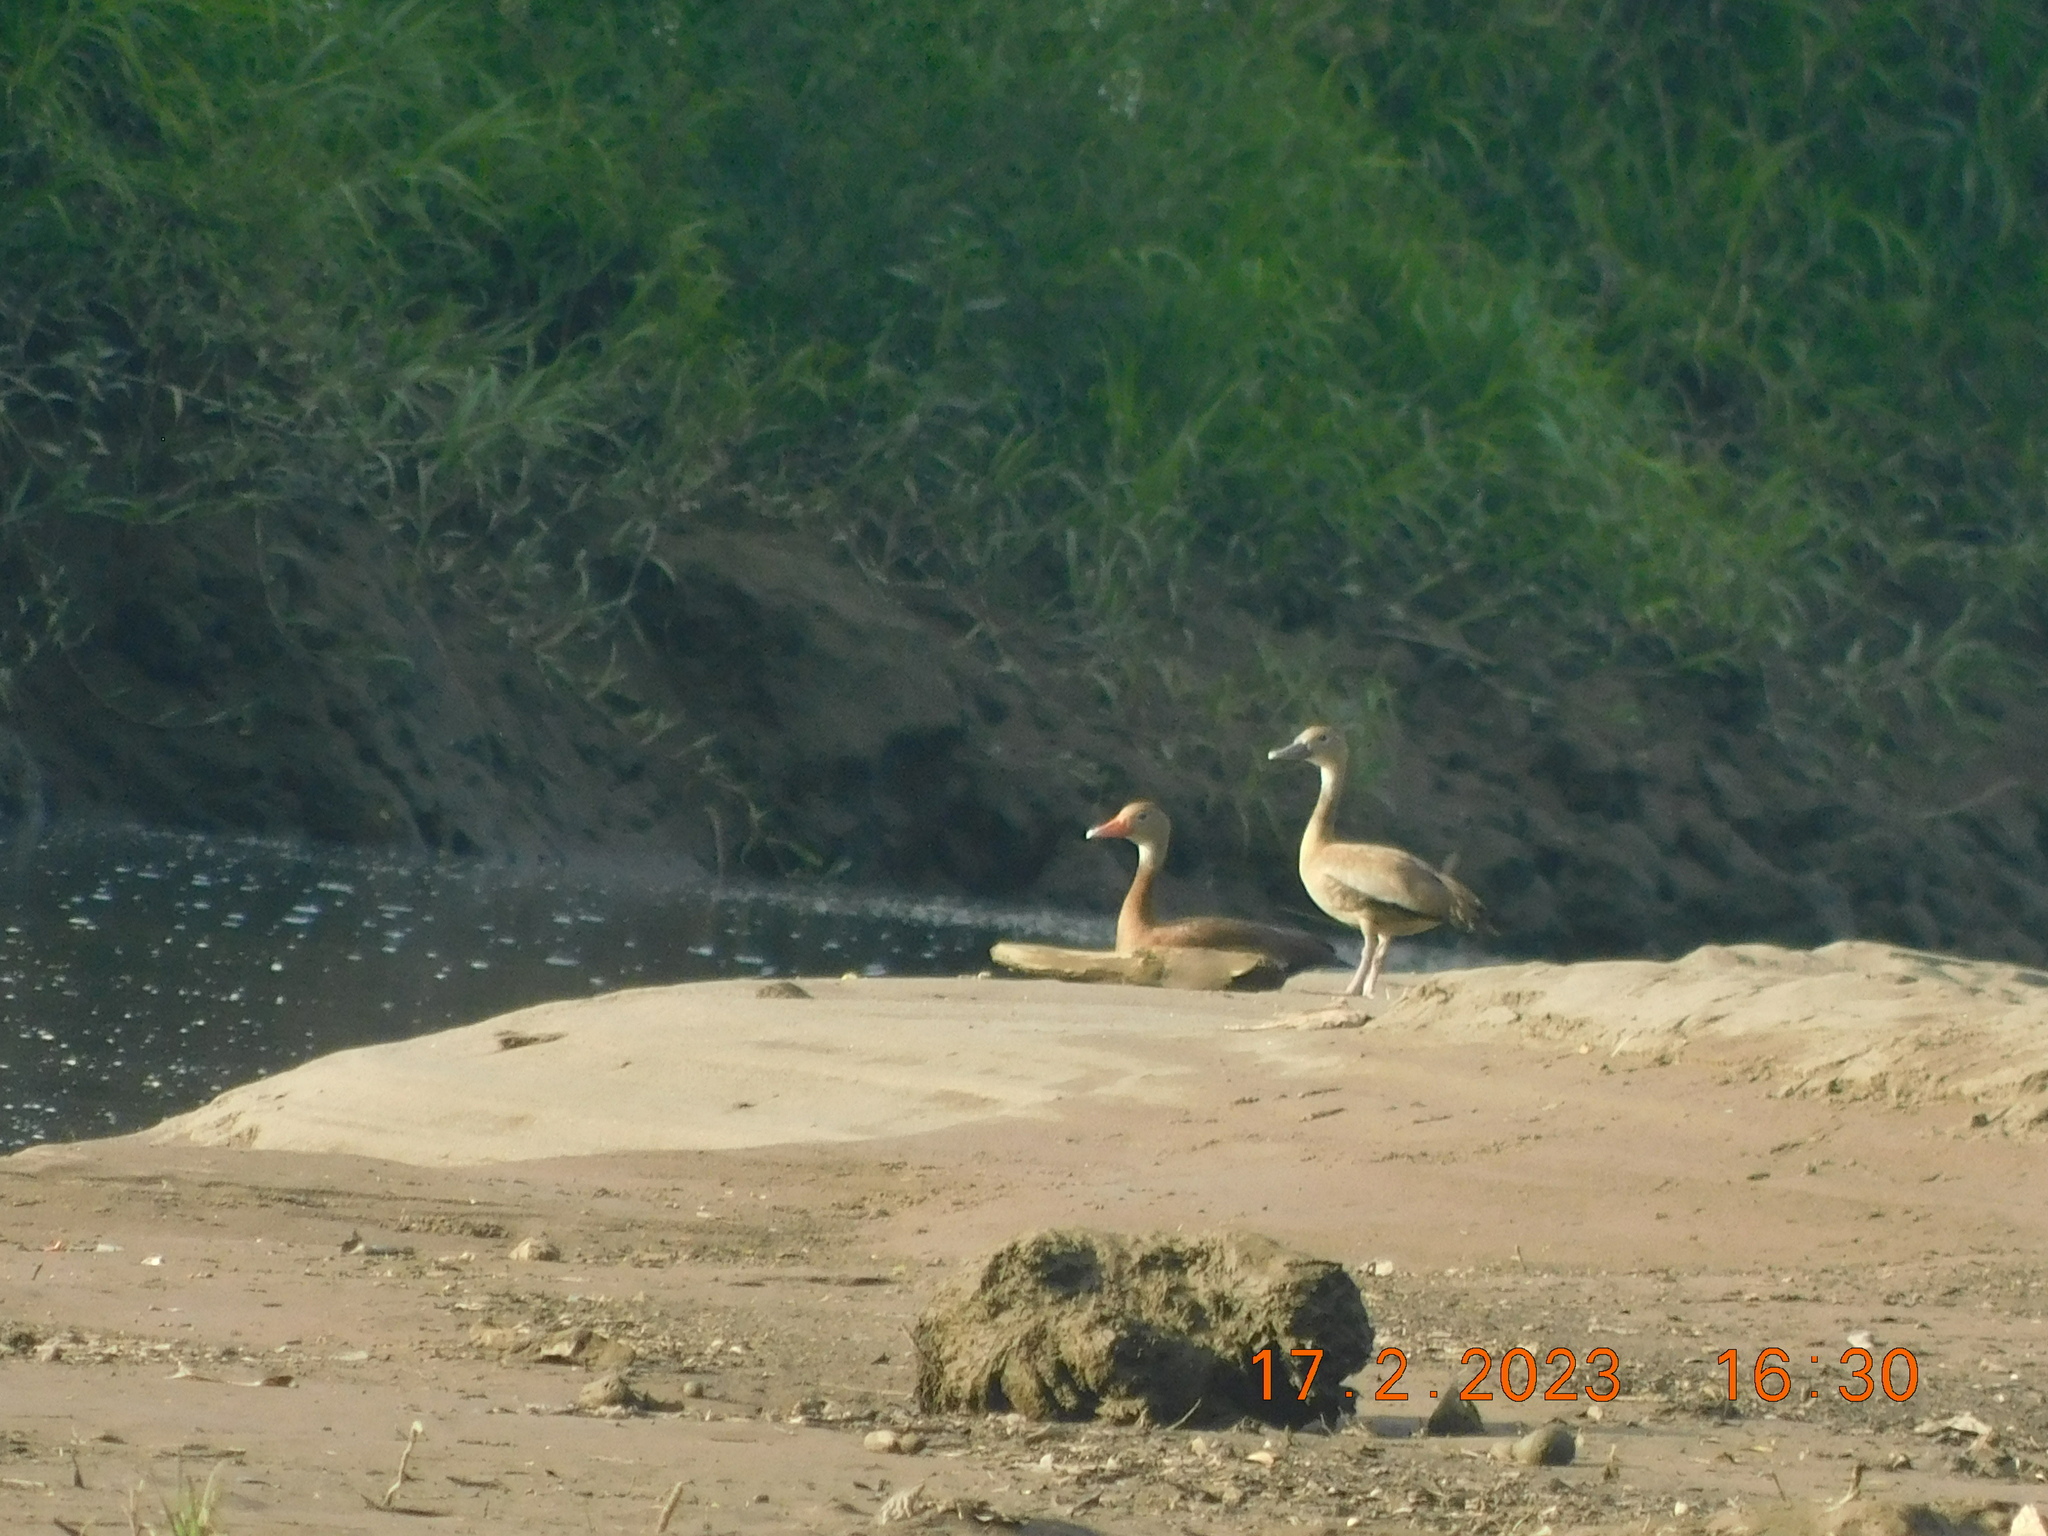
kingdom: Animalia
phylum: Chordata
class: Aves
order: Anseriformes
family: Anatidae
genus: Dendrocygna
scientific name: Dendrocygna autumnalis
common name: Black-bellied whistling duck
